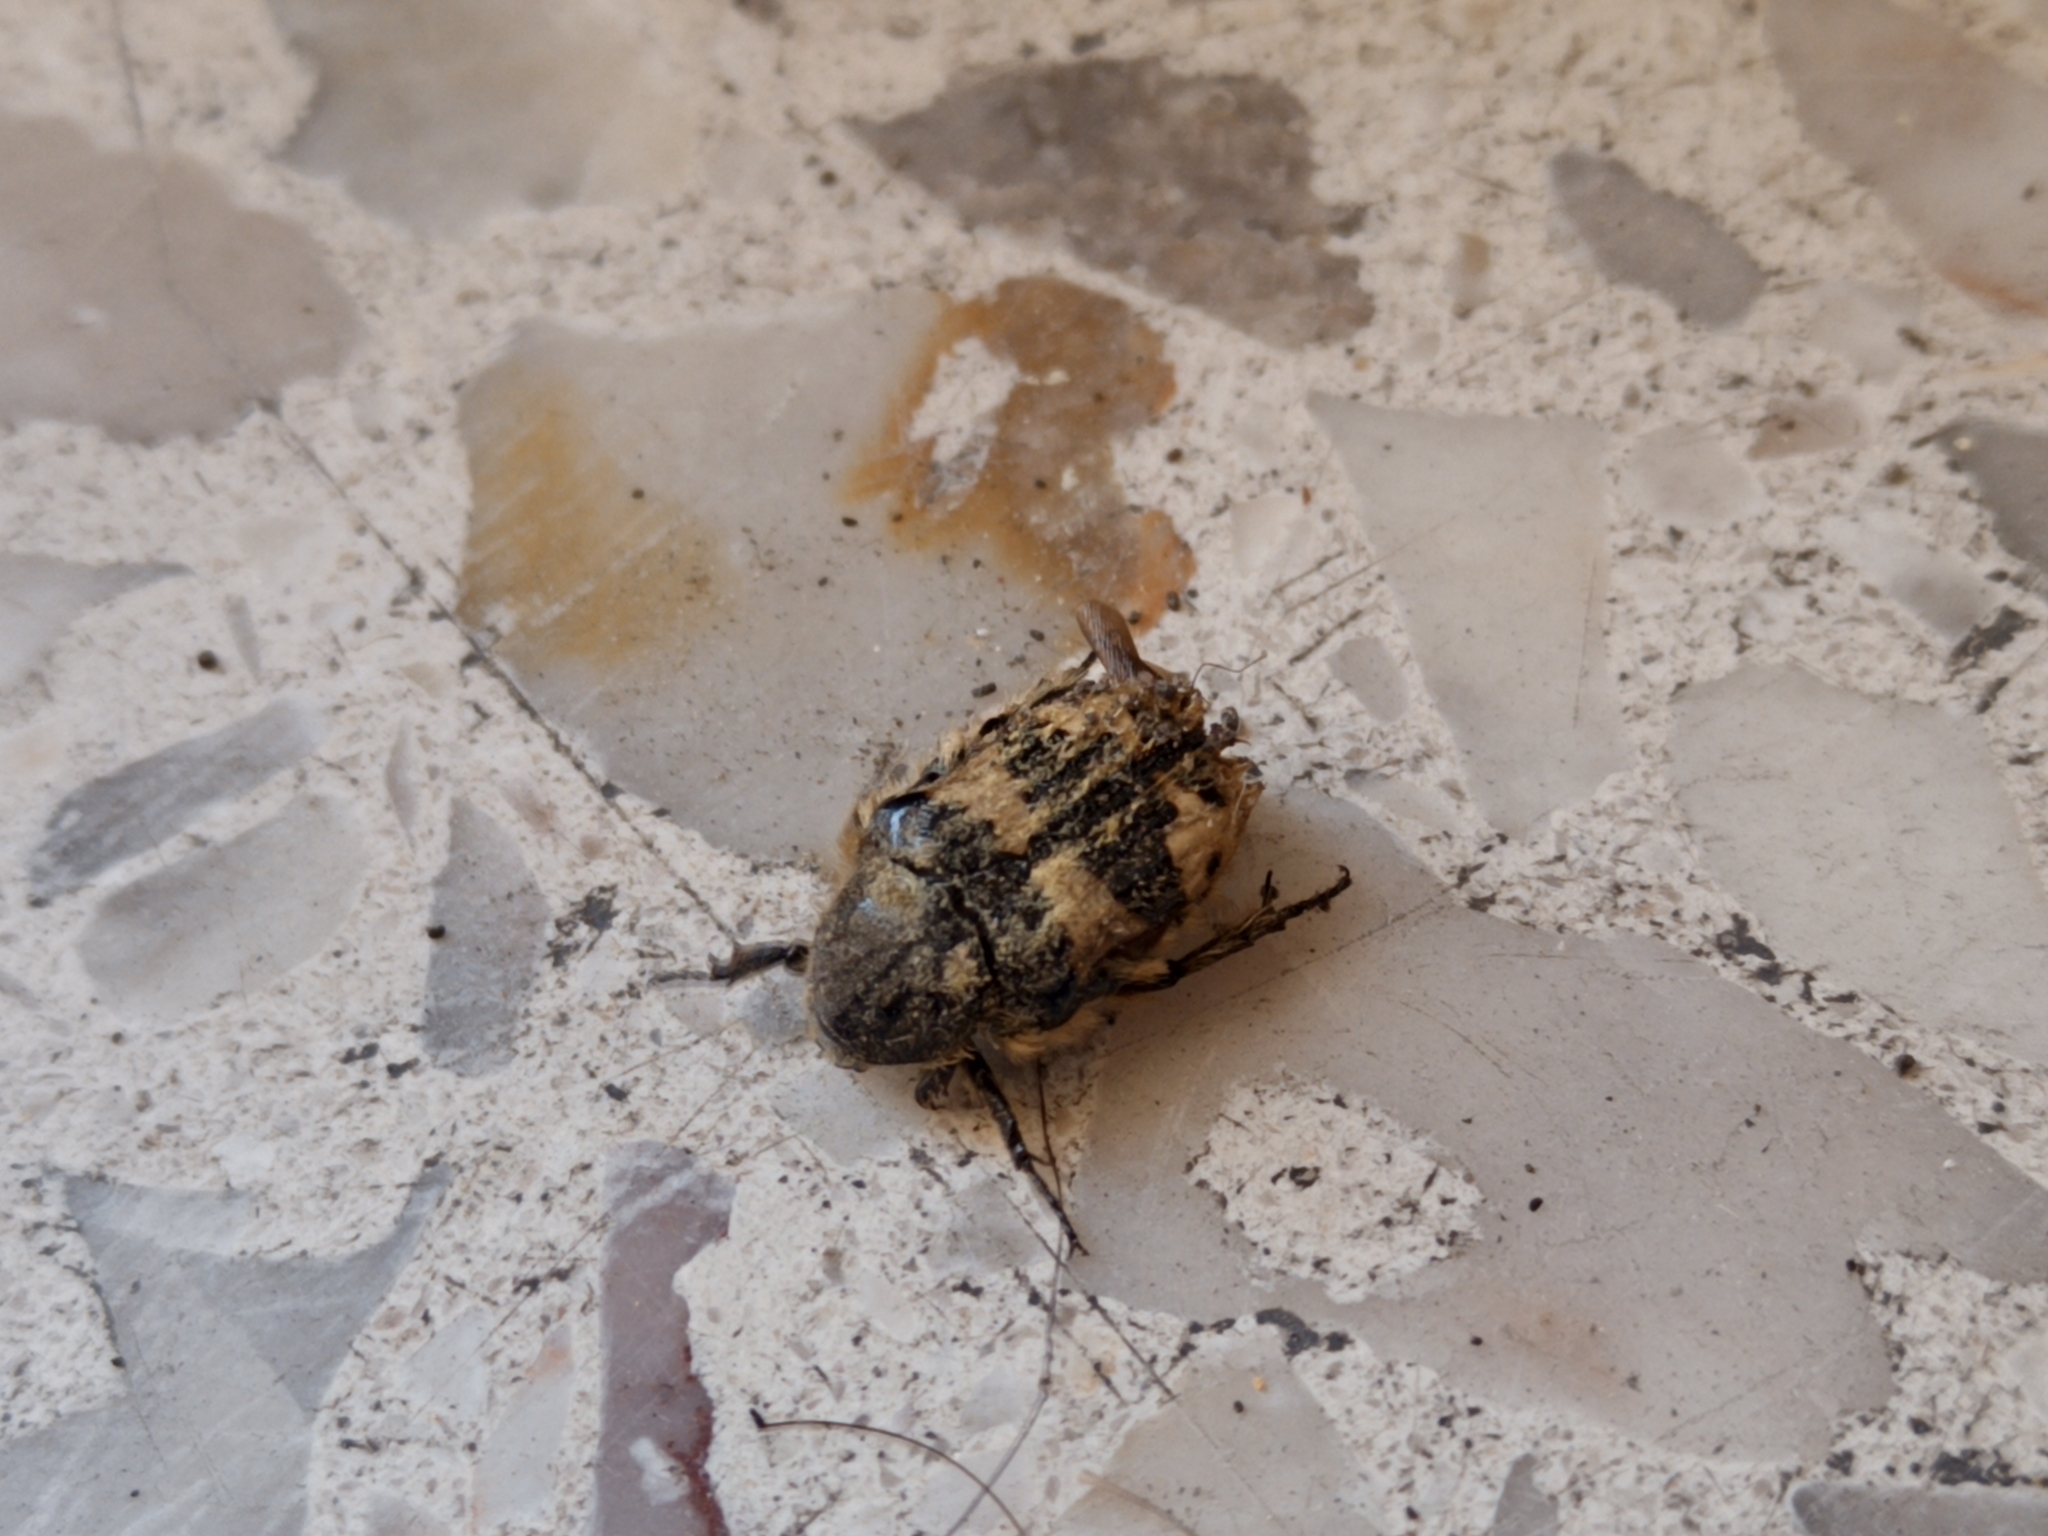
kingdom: Animalia
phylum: Arthropoda
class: Insecta
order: Coleoptera
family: Scarabaeidae
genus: Euphoria
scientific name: Euphoria basalis
